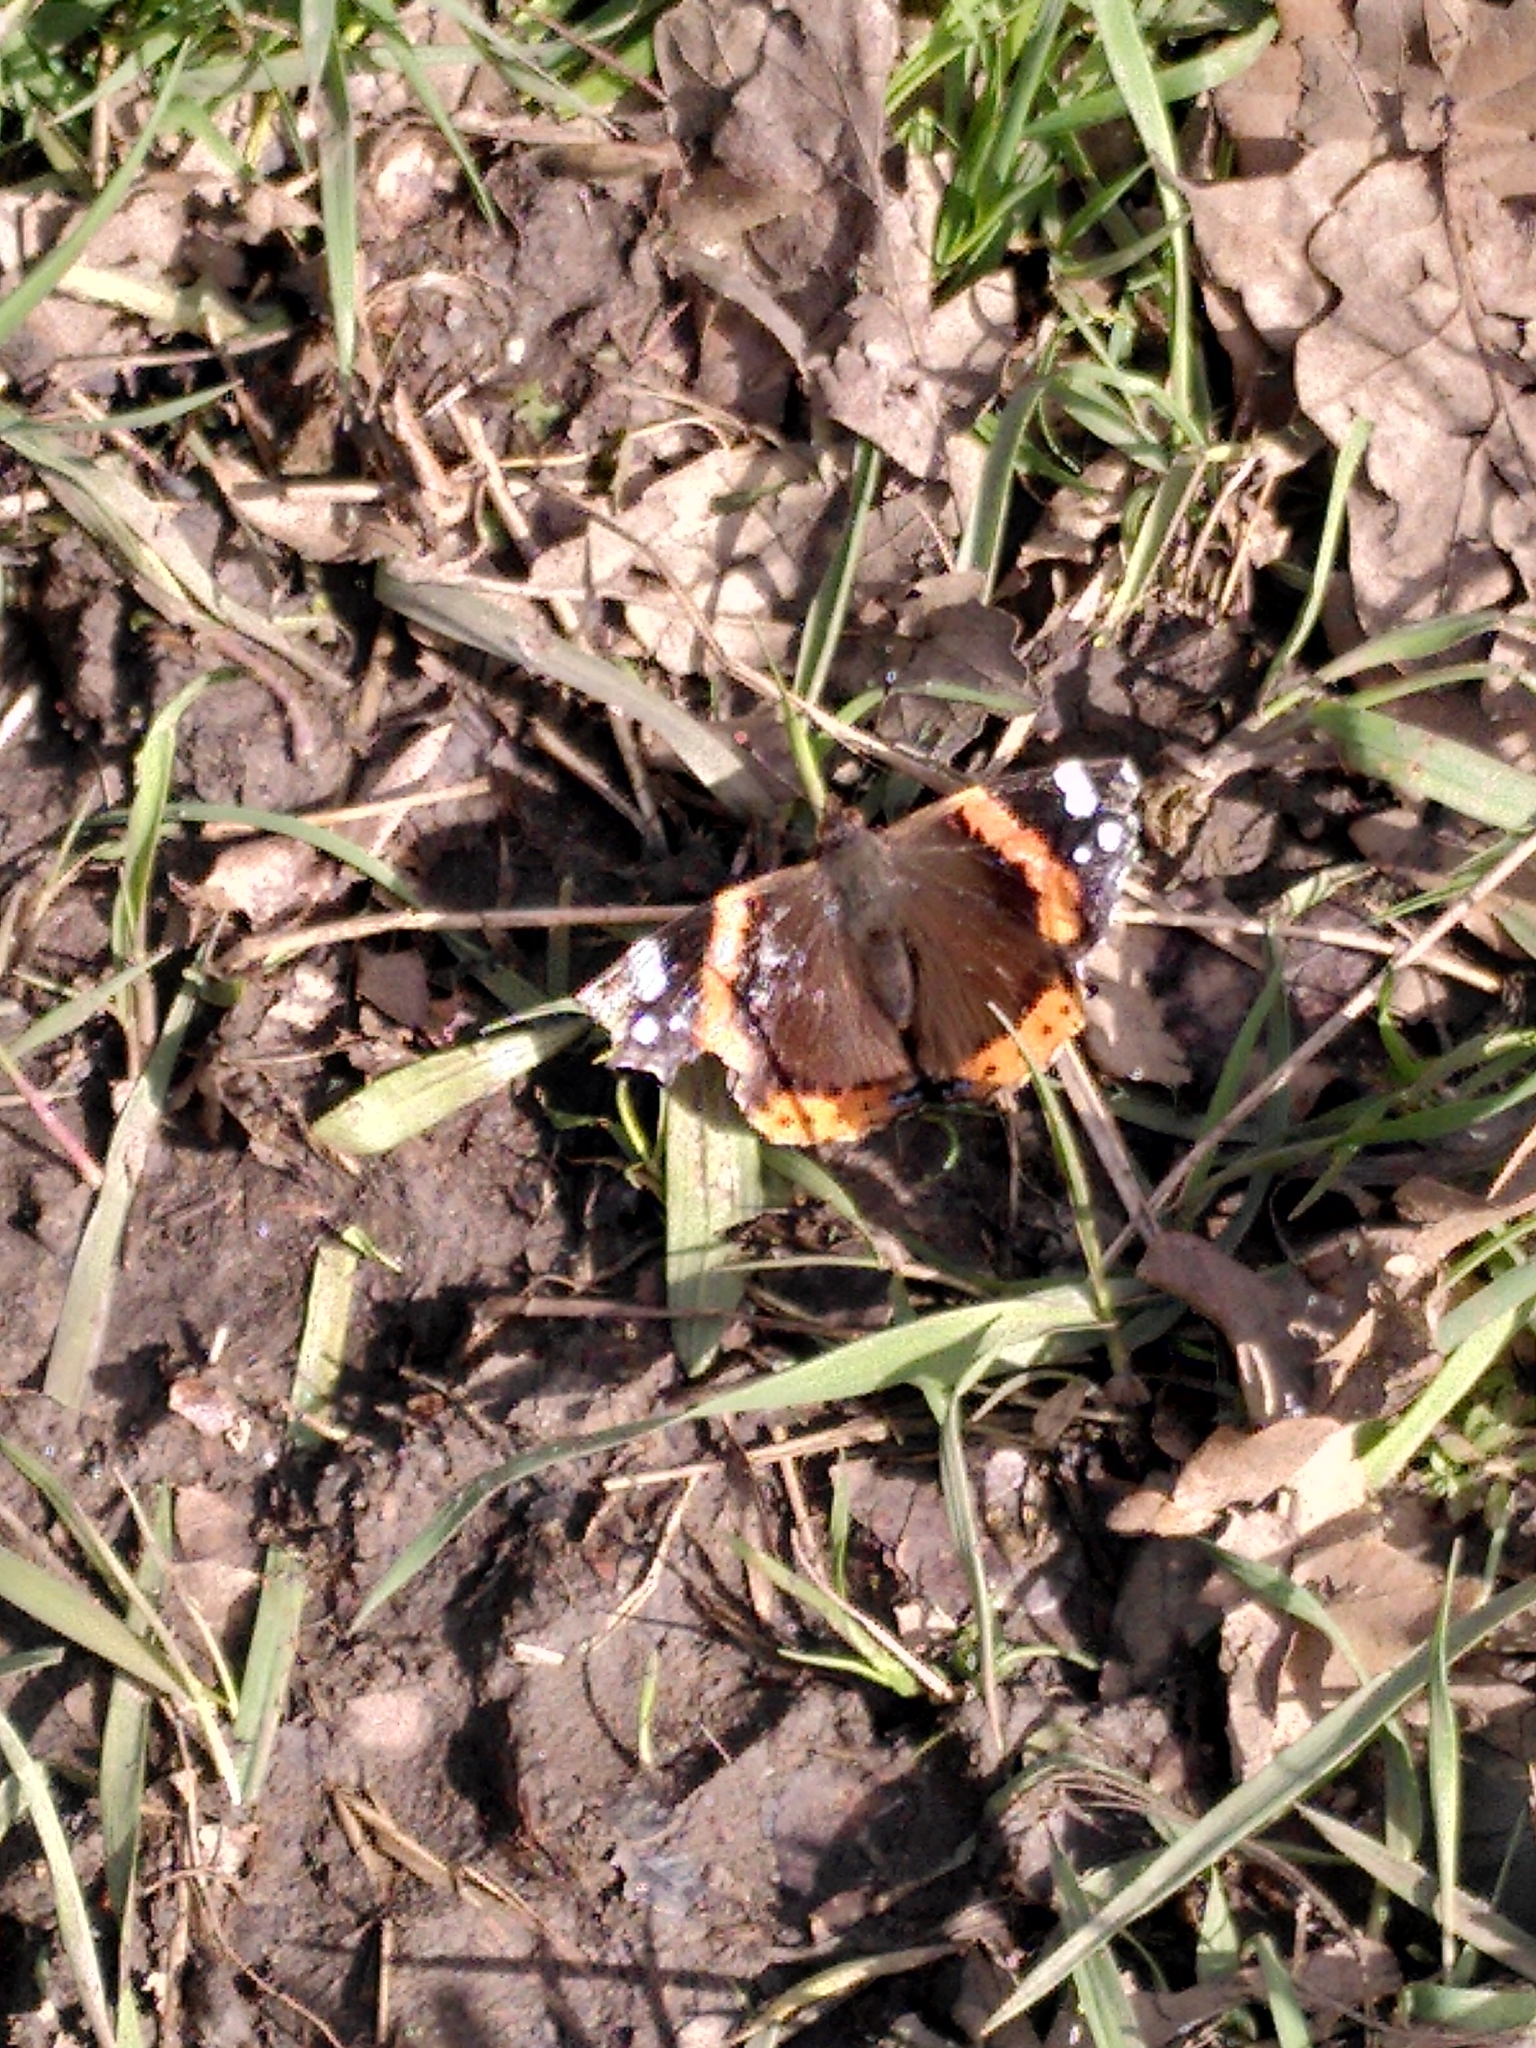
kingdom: Animalia
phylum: Arthropoda
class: Insecta
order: Lepidoptera
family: Nymphalidae
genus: Vanessa
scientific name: Vanessa atalanta
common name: Red admiral
